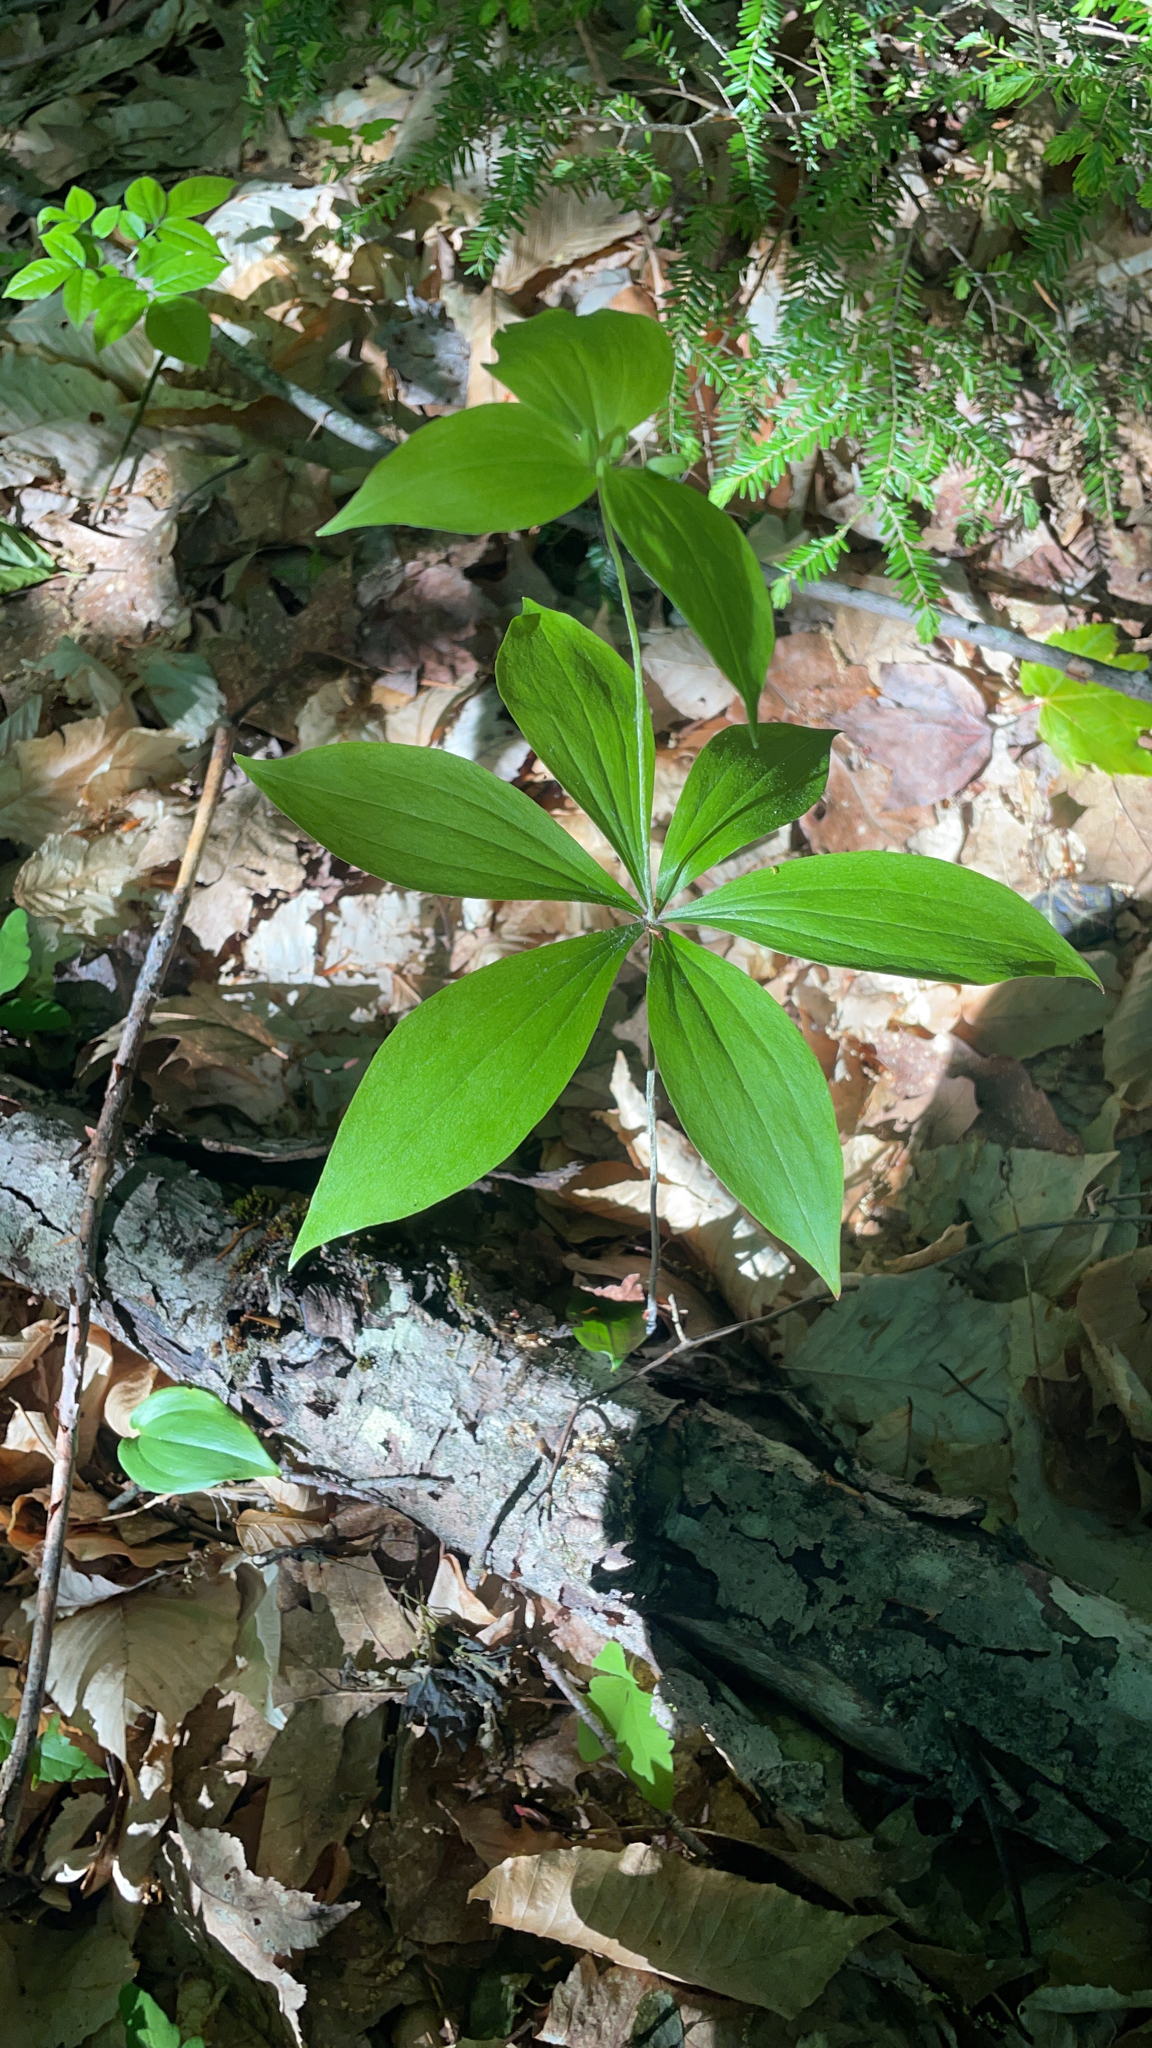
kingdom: Plantae
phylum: Tracheophyta
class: Liliopsida
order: Liliales
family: Liliaceae
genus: Medeola
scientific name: Medeola virginiana
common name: Indian cucumber-root
